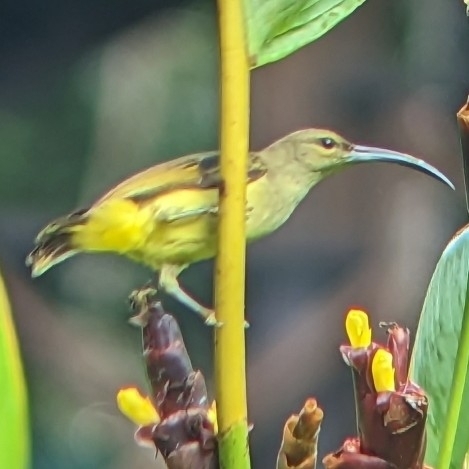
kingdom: Animalia
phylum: Chordata
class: Aves
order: Passeriformes
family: Nectariniidae
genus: Arachnothera
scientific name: Arachnothera robusta
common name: Long-billed spiderhunter
